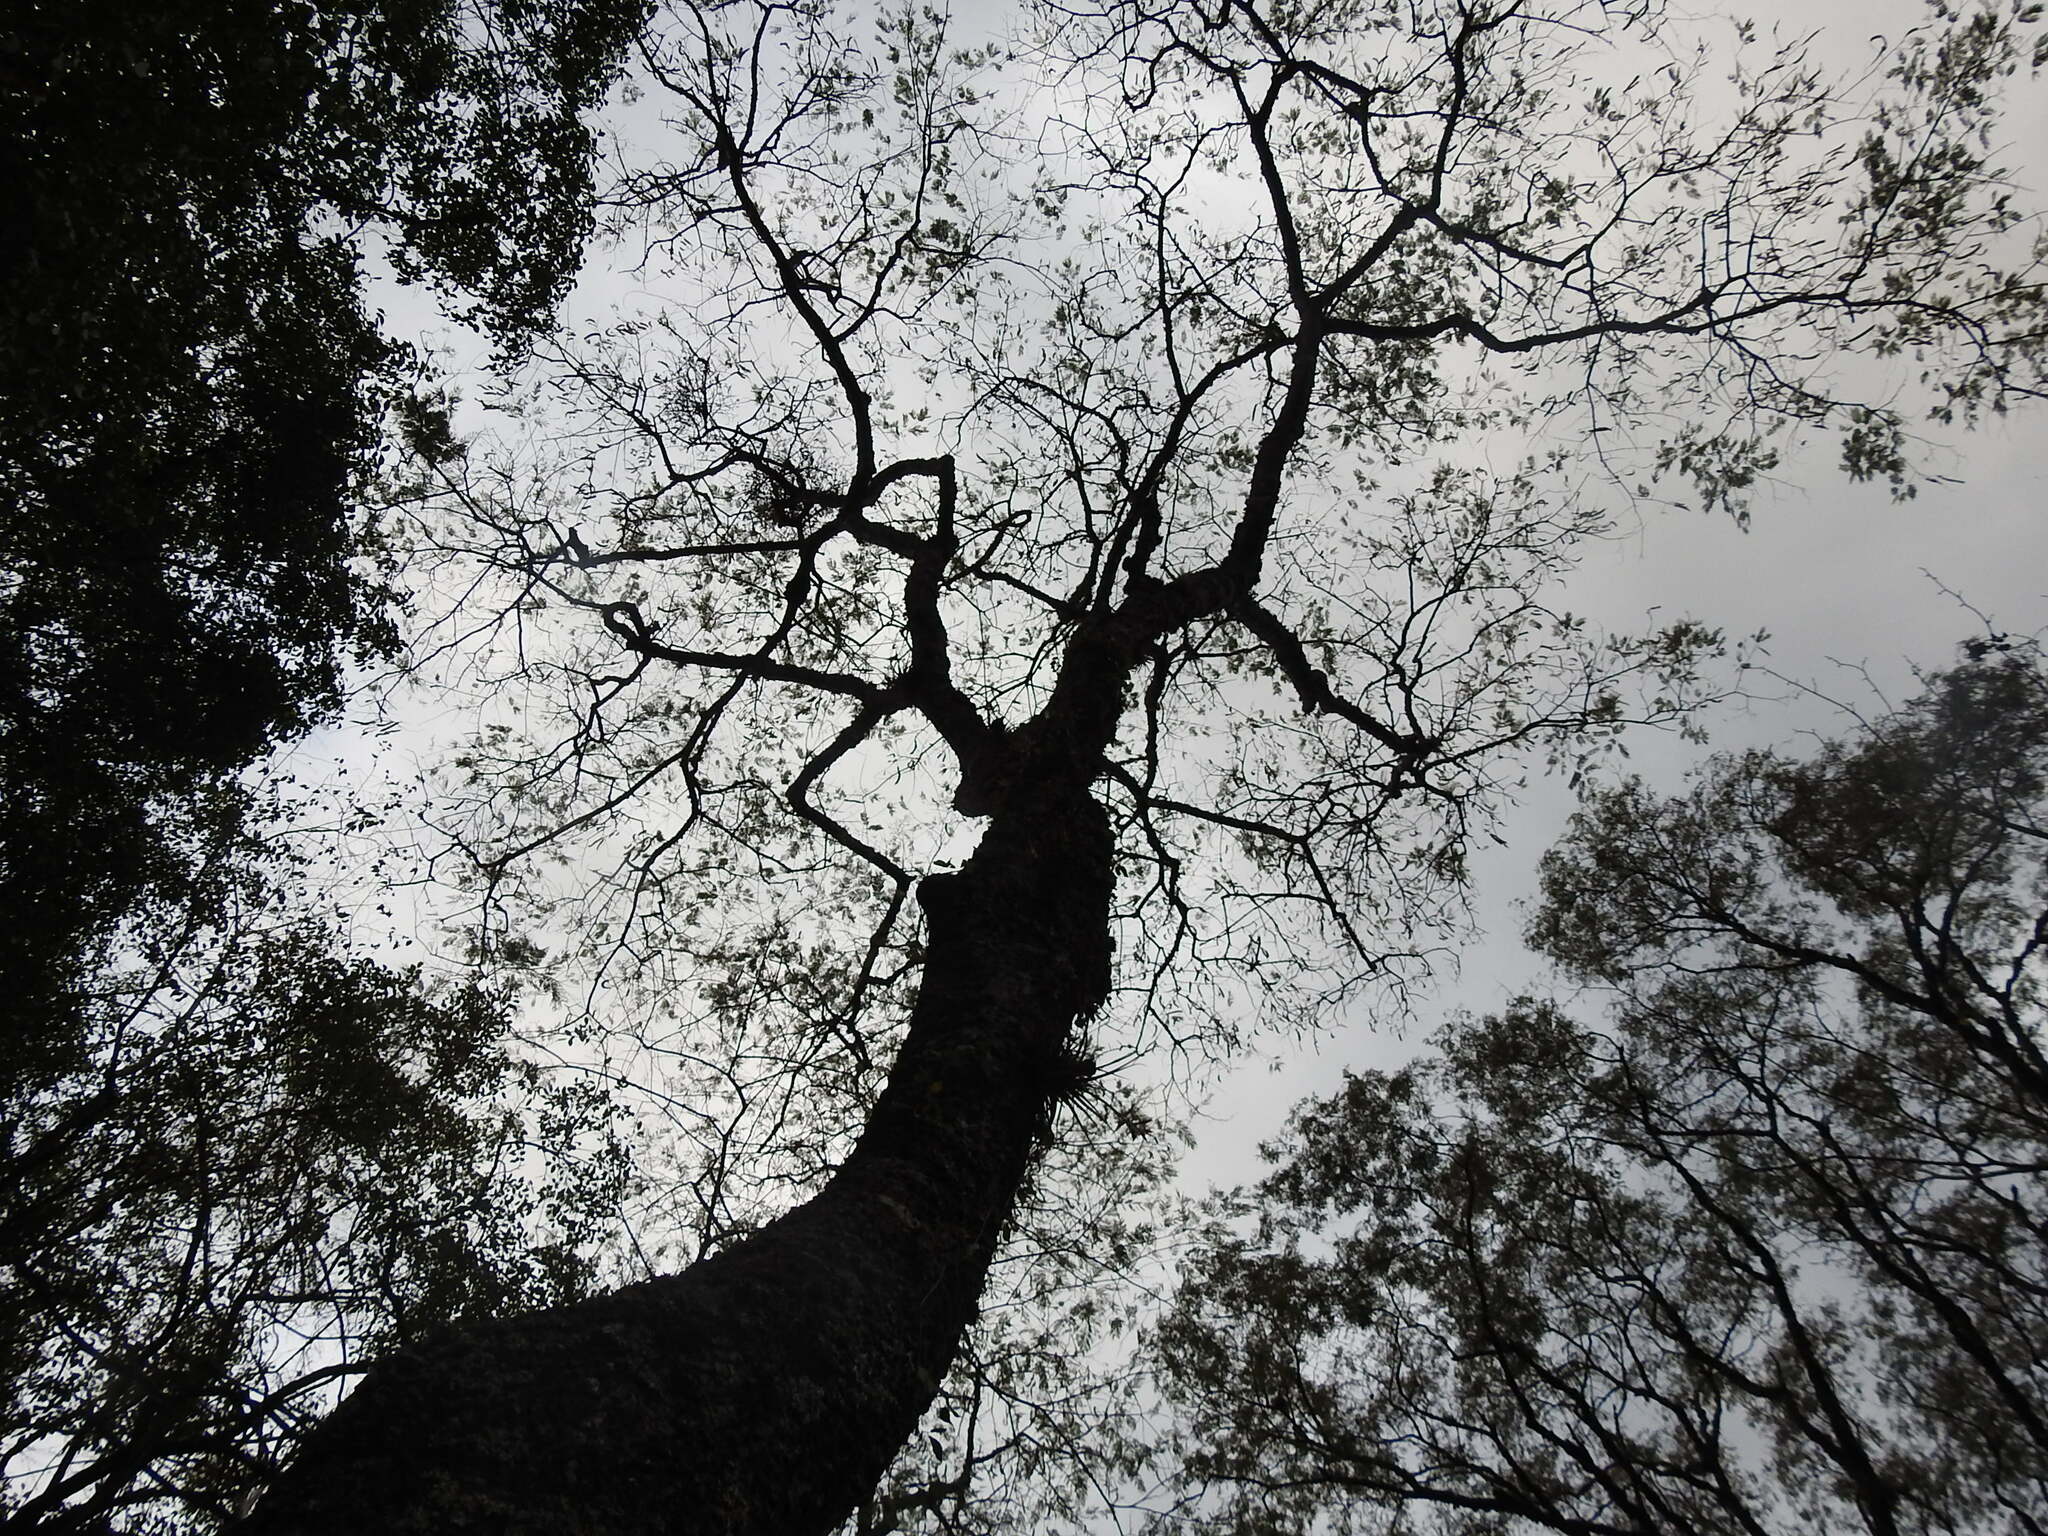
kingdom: Plantae
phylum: Tracheophyta
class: Magnoliopsida
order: Fabales
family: Fabaceae
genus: Anadenanthera
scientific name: Anadenanthera colubrina
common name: Curupay
